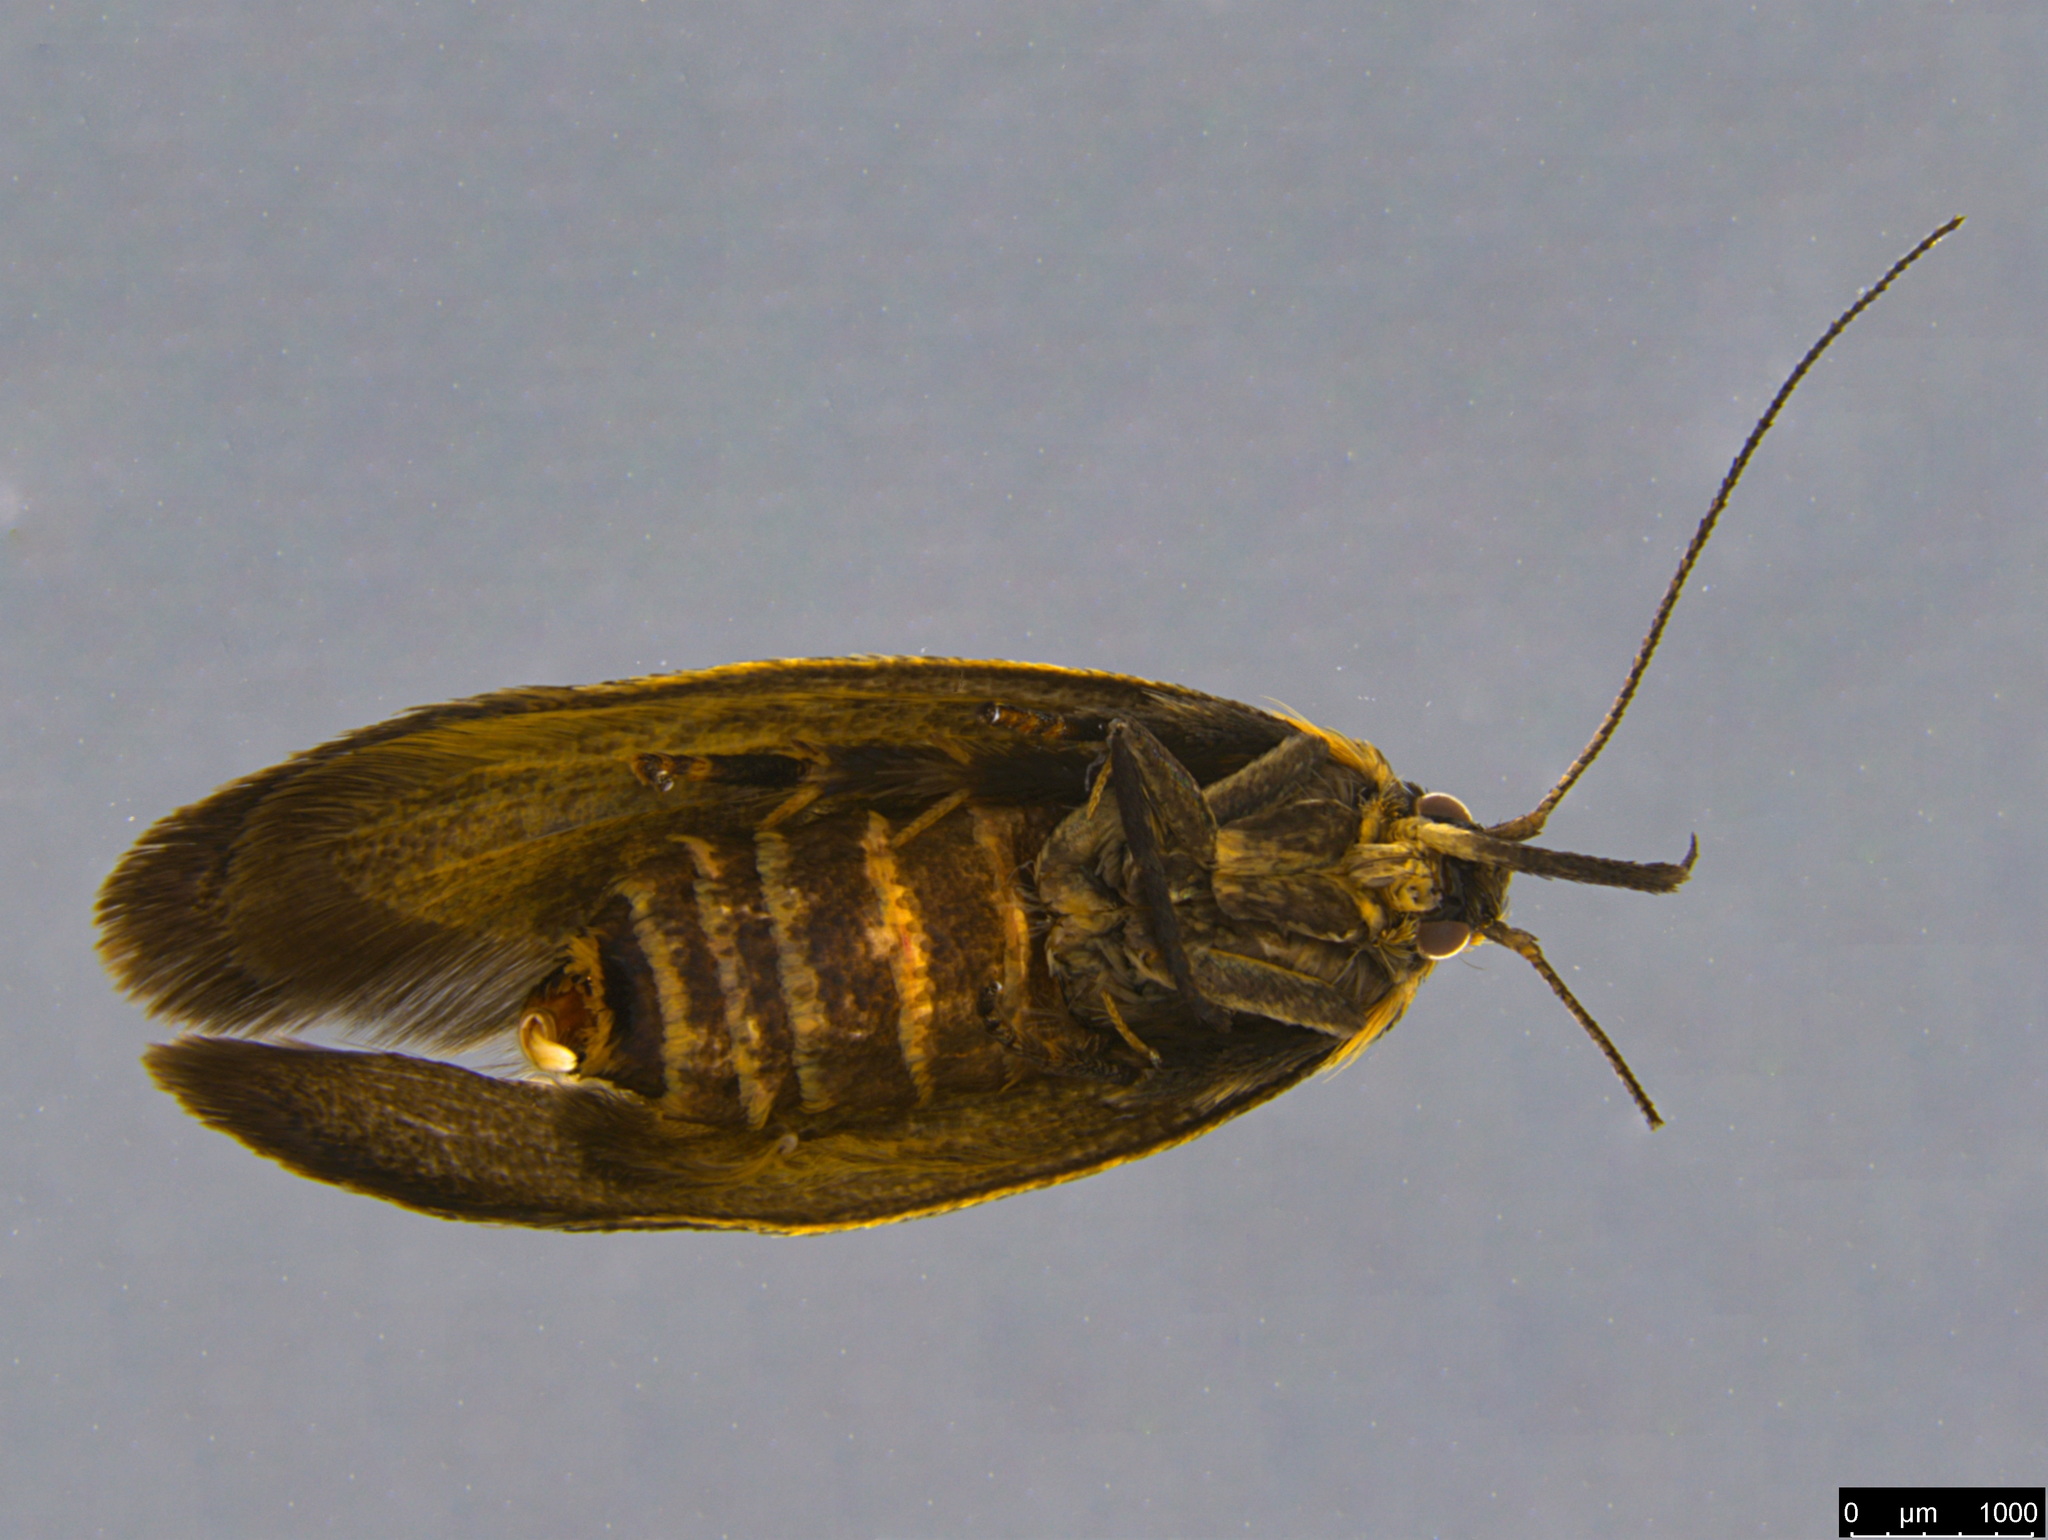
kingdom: Animalia
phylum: Arthropoda
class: Insecta
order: Lepidoptera
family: Oecophoridae
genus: Leistomorpha
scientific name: Leistomorpha brontoscopa
